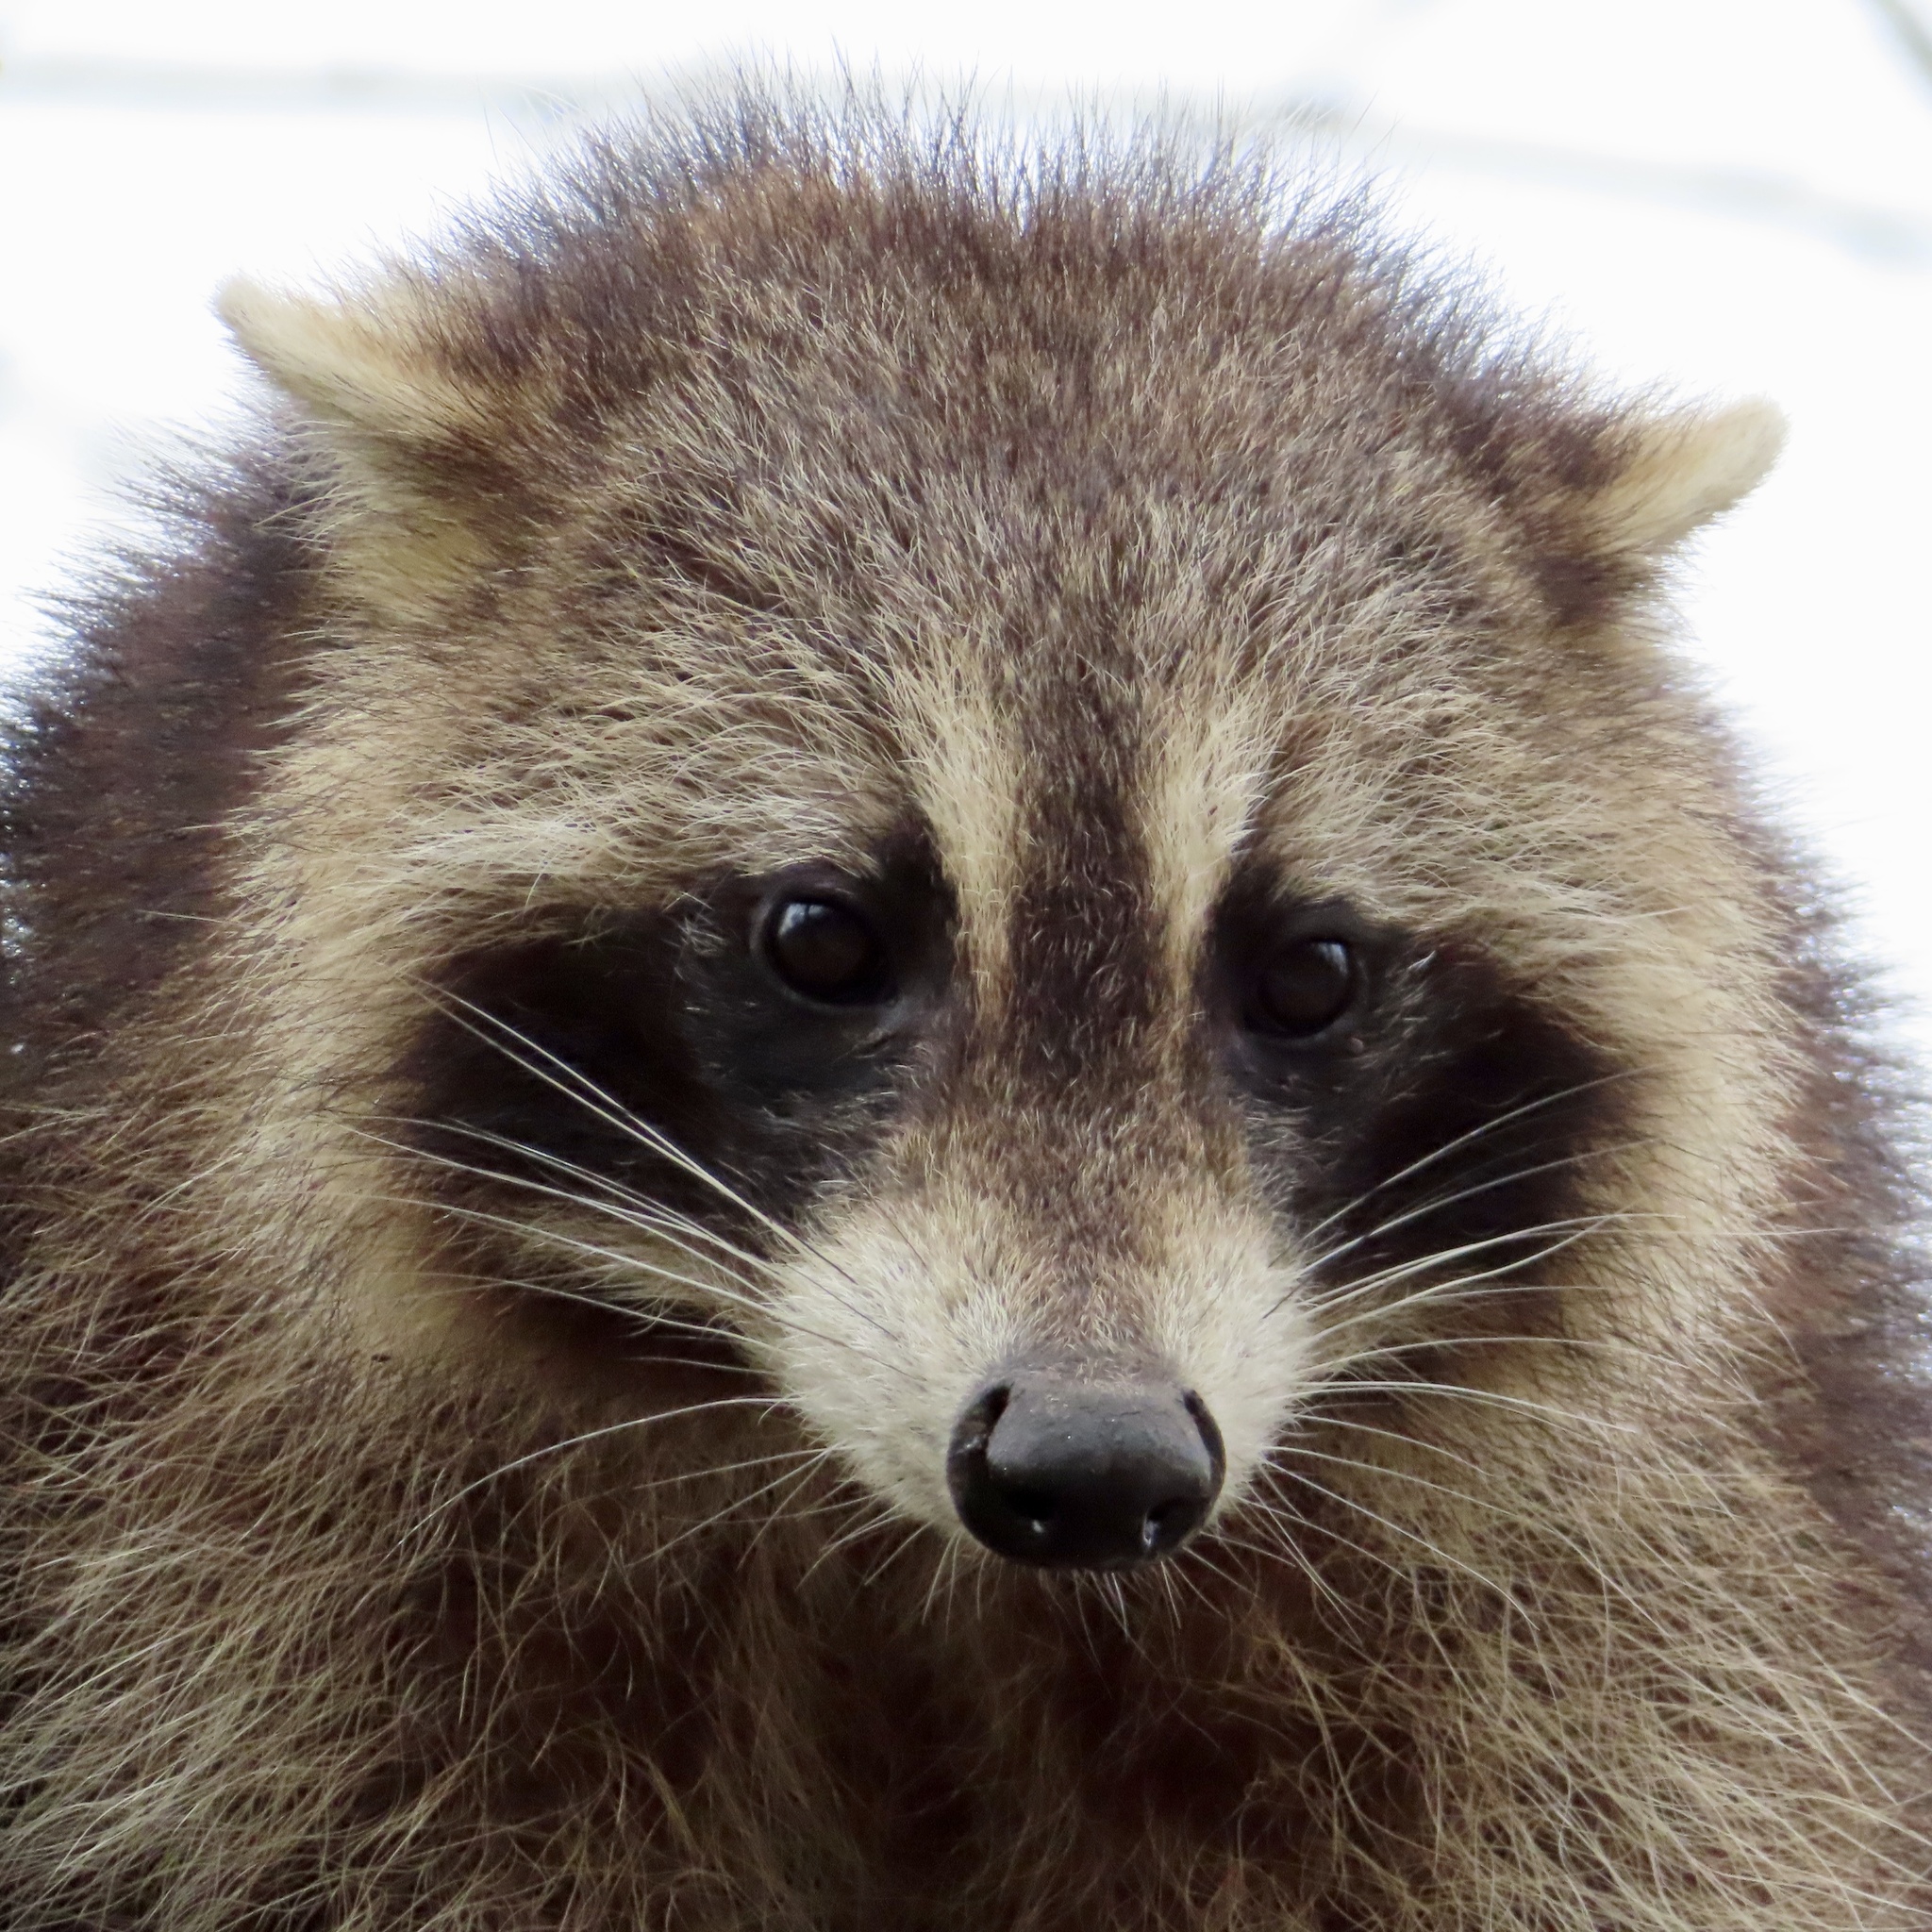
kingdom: Animalia
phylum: Chordata
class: Mammalia
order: Carnivora
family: Procyonidae
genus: Procyon
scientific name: Procyon lotor
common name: Raccoon
